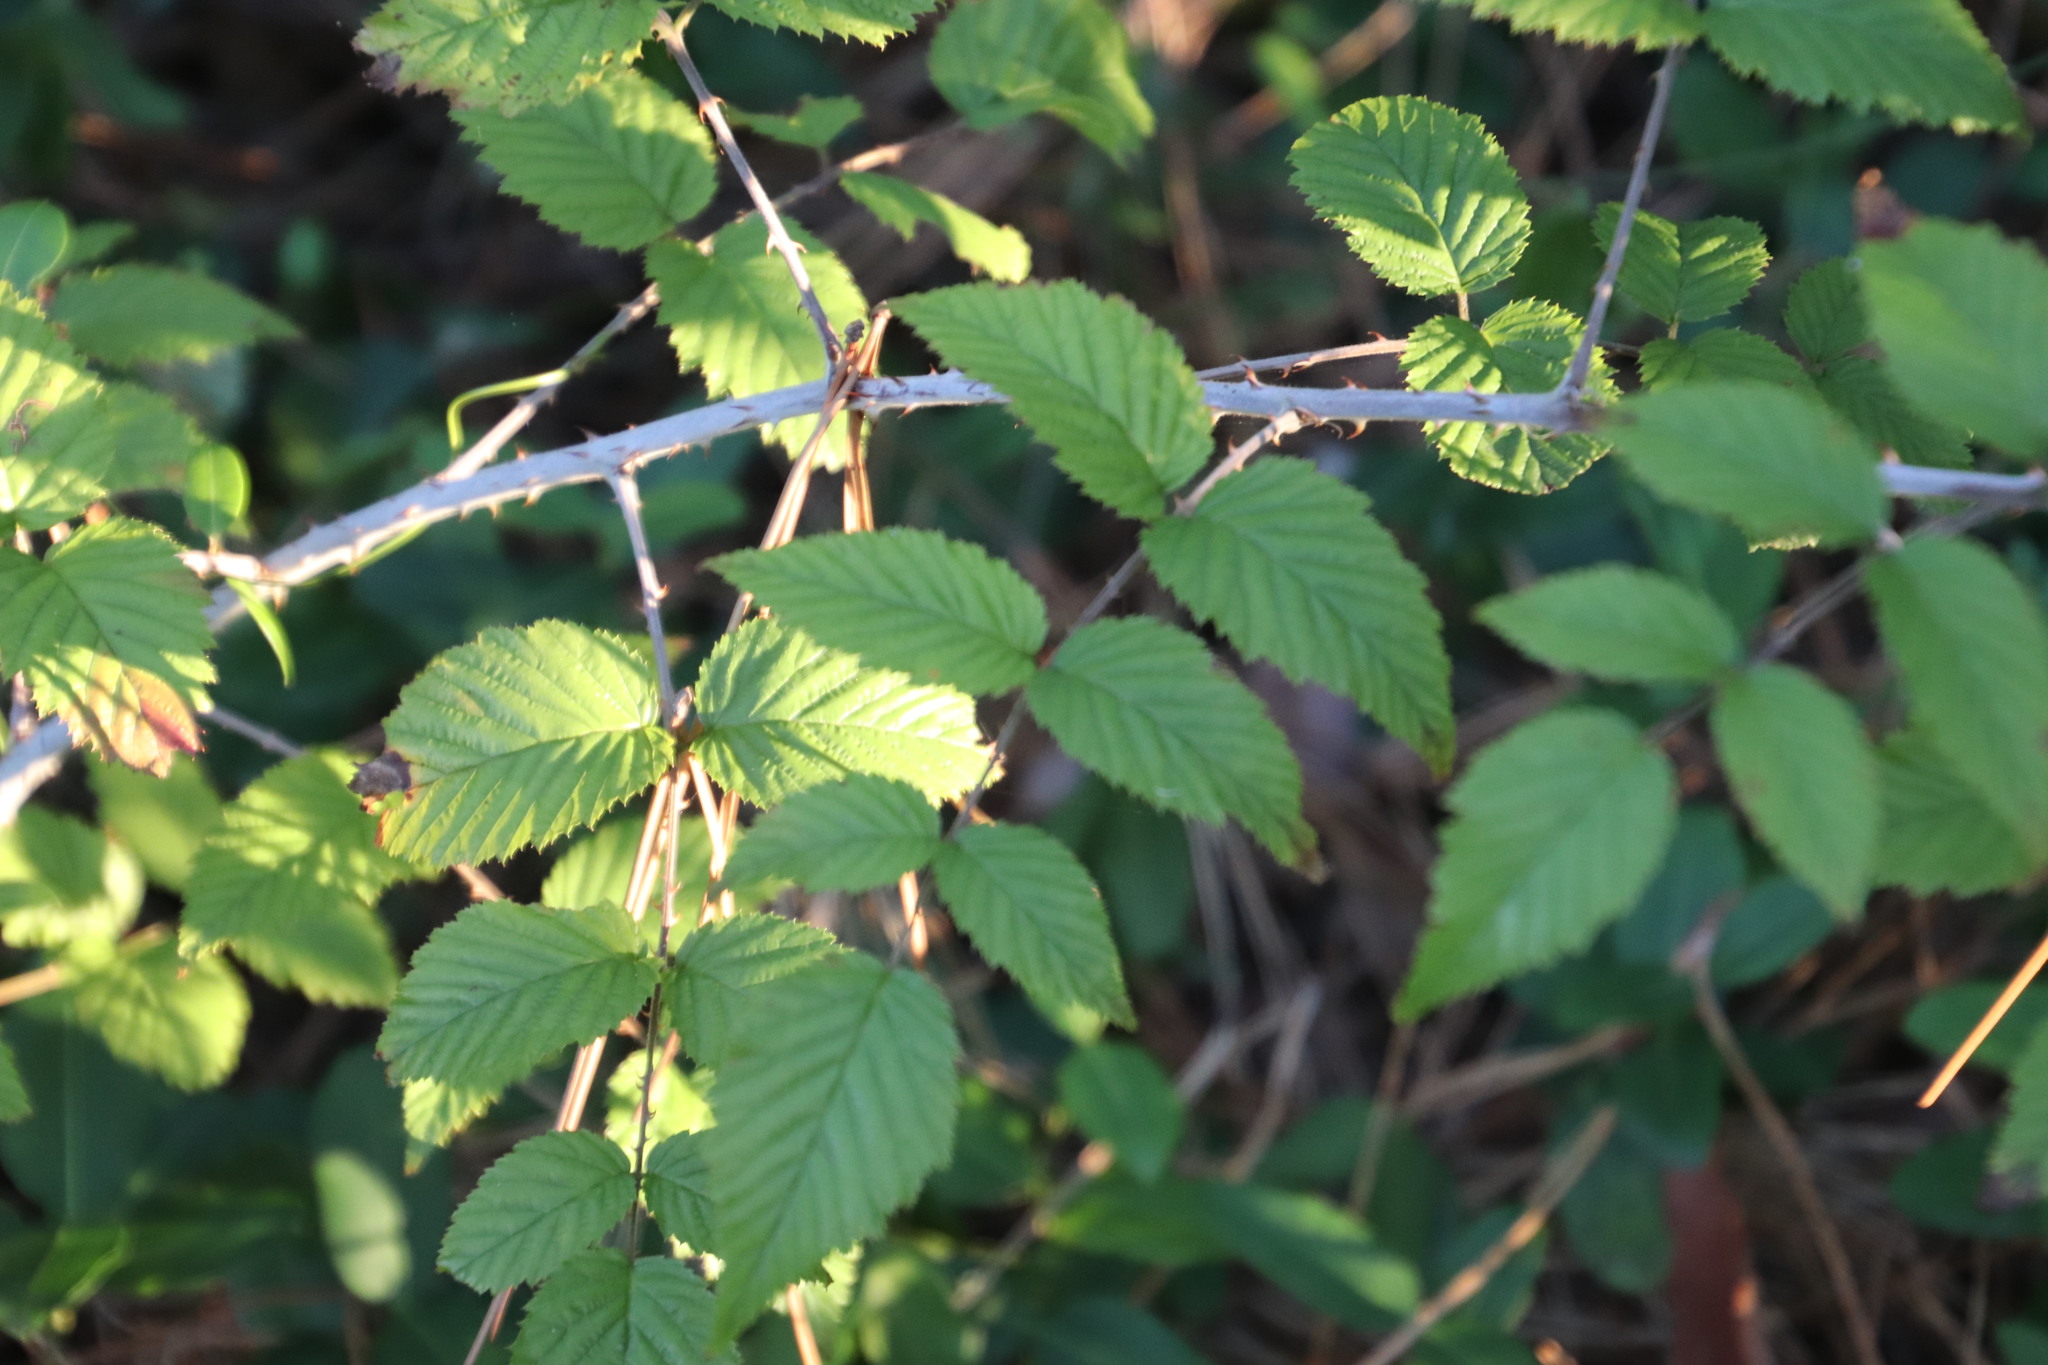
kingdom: Plantae
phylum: Tracheophyta
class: Magnoliopsida
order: Rosales
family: Rosaceae
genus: Rubus
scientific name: Rubus pinnatus
